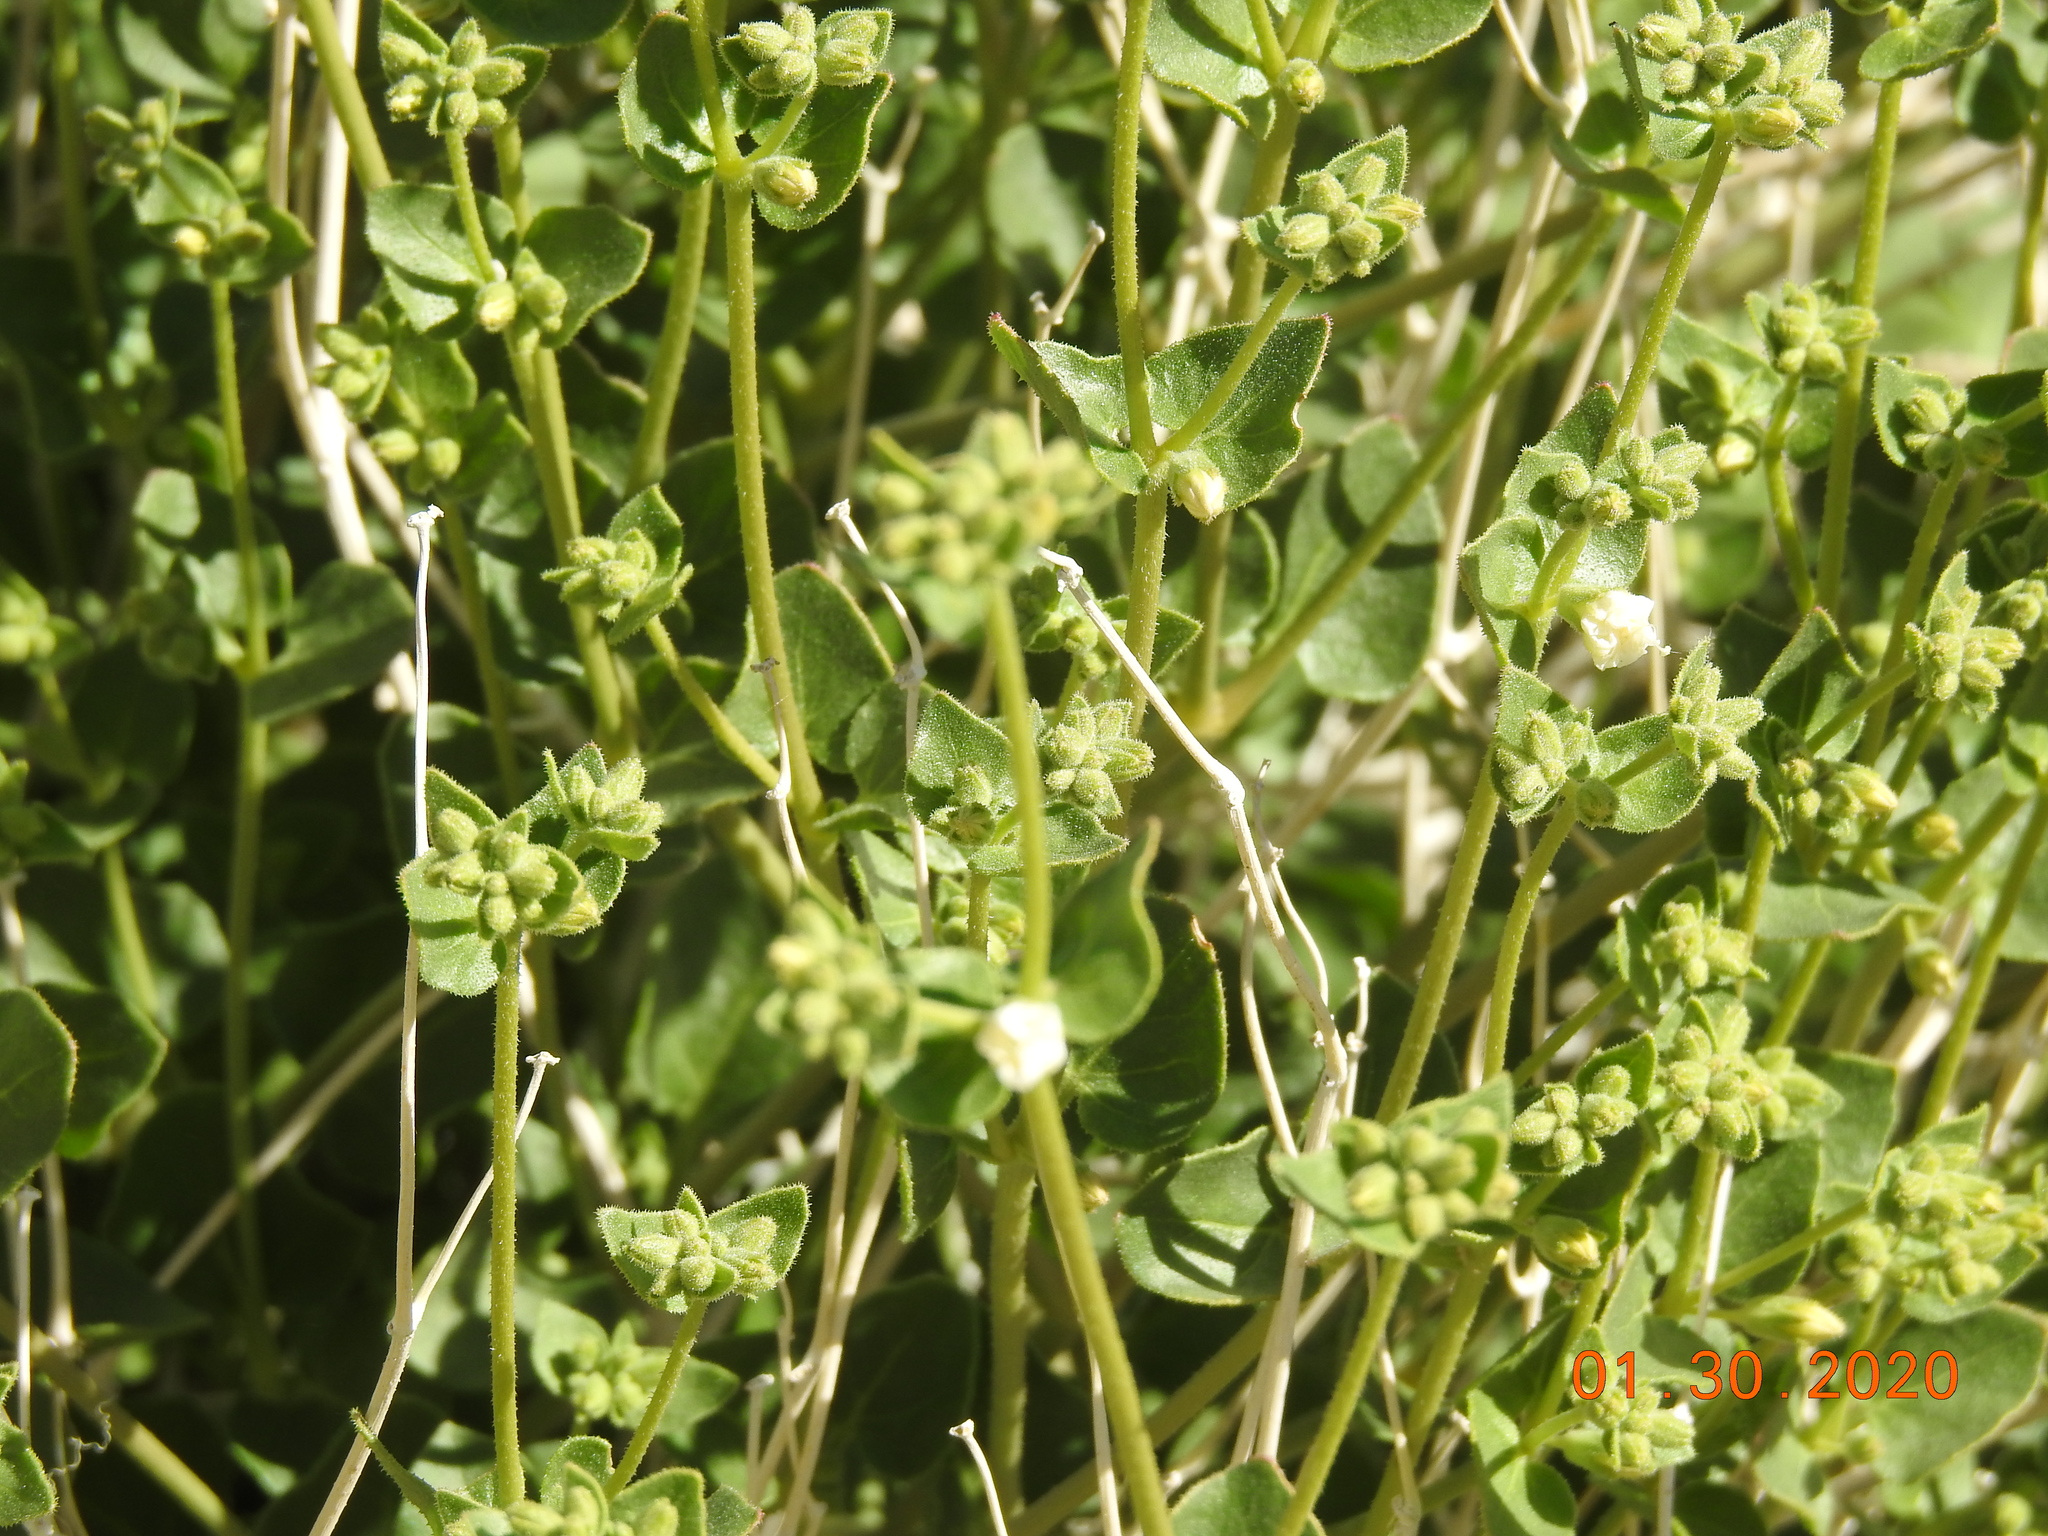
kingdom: Plantae
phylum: Tracheophyta
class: Magnoliopsida
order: Caryophyllales
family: Nyctaginaceae
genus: Mirabilis
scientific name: Mirabilis laevis
